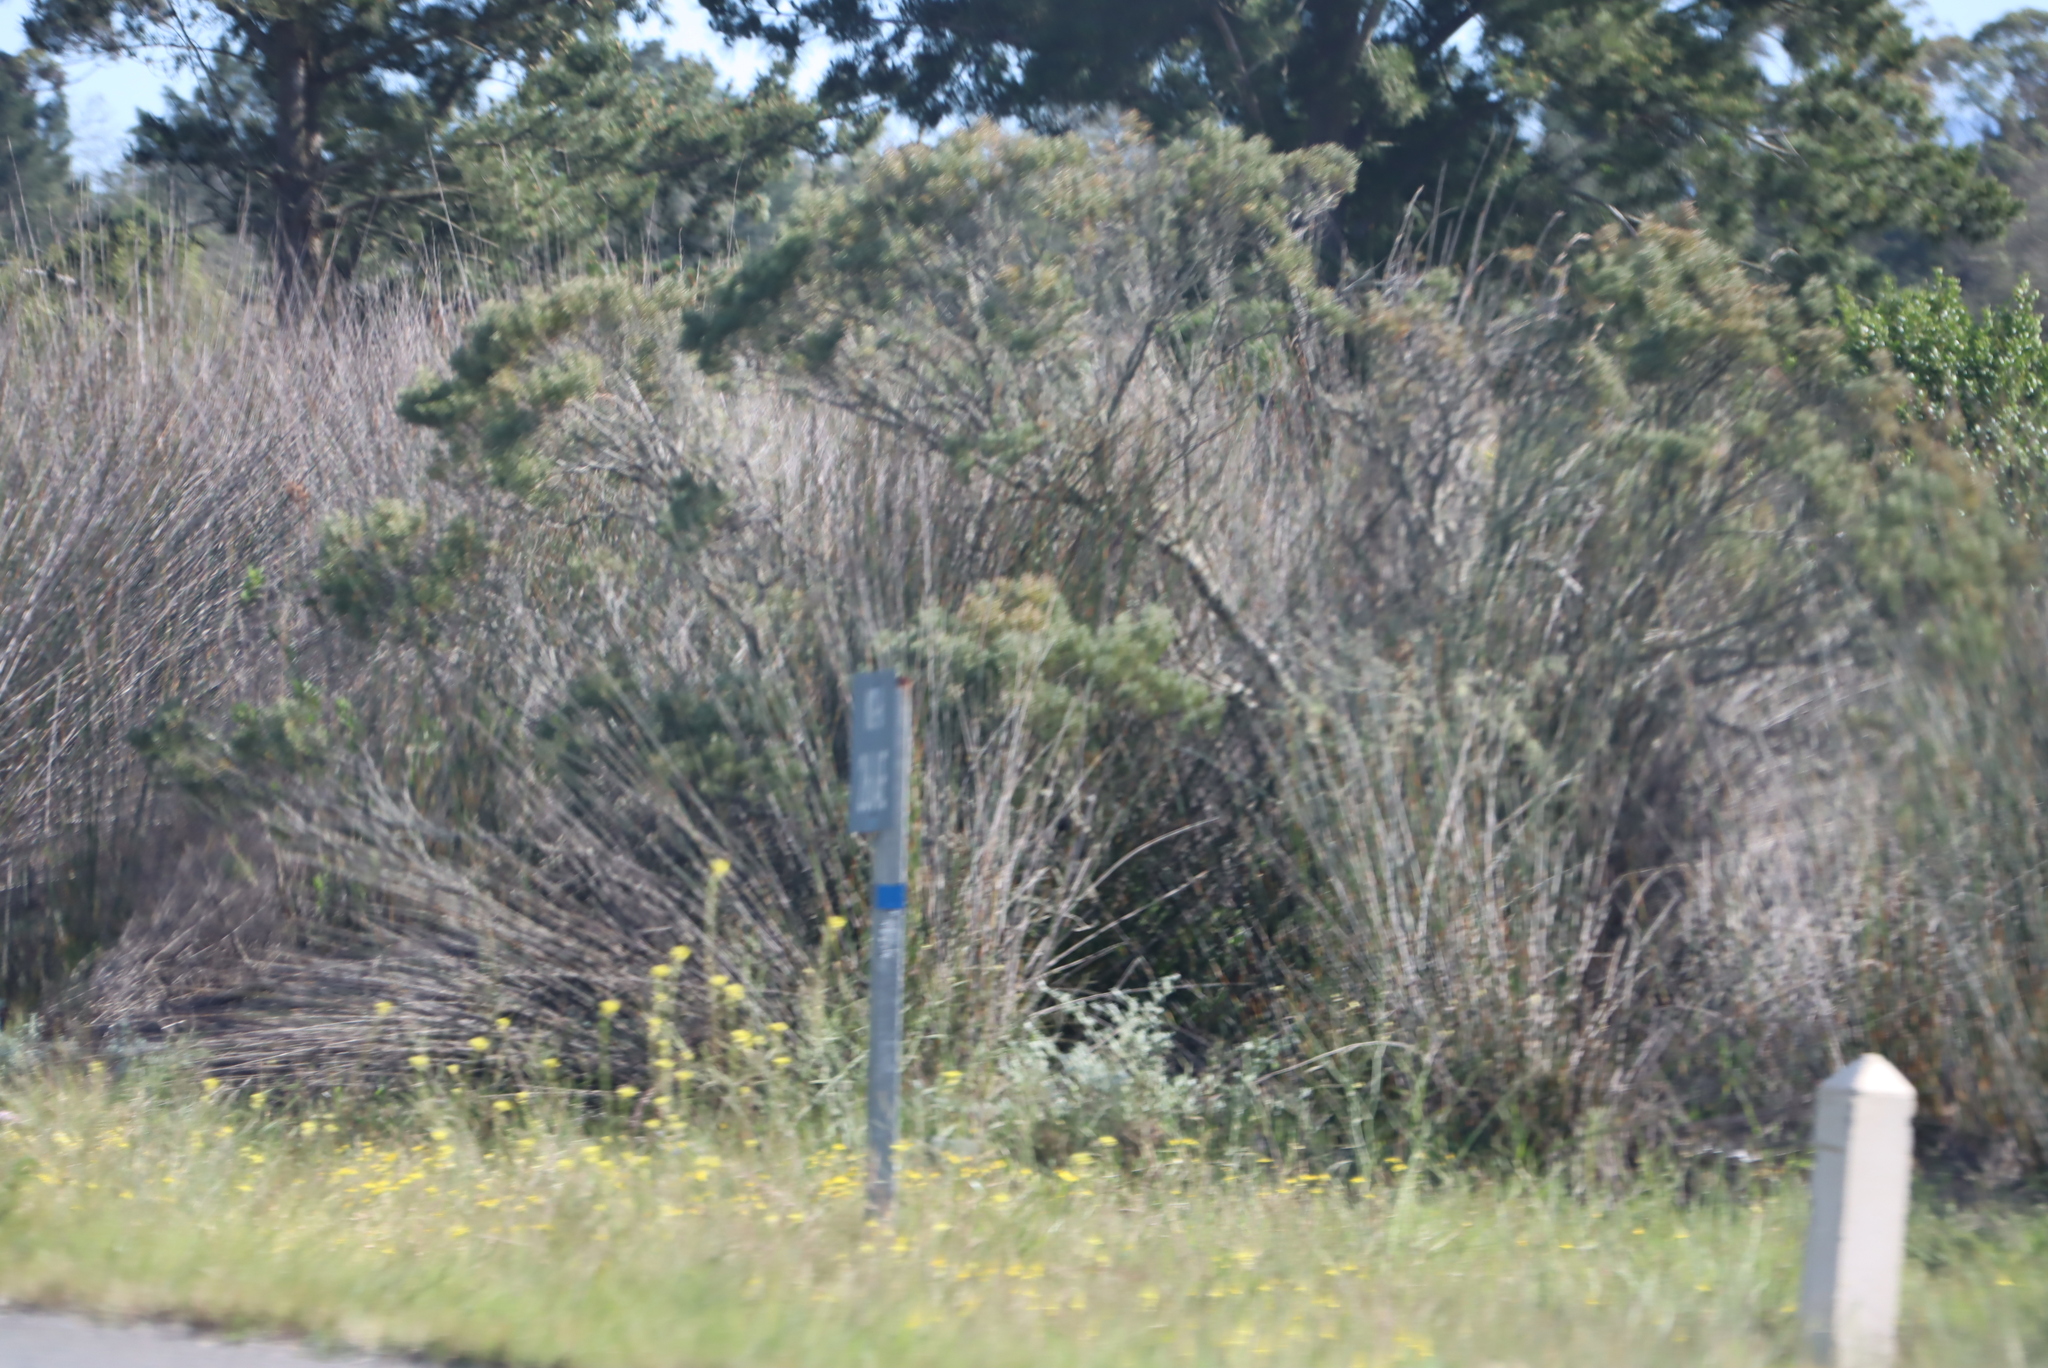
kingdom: Plantae
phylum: Tracheophyta
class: Magnoliopsida
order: Proteales
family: Proteaceae
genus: Leucadendron
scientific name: Leucadendron galpinii
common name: Hairless conebush
